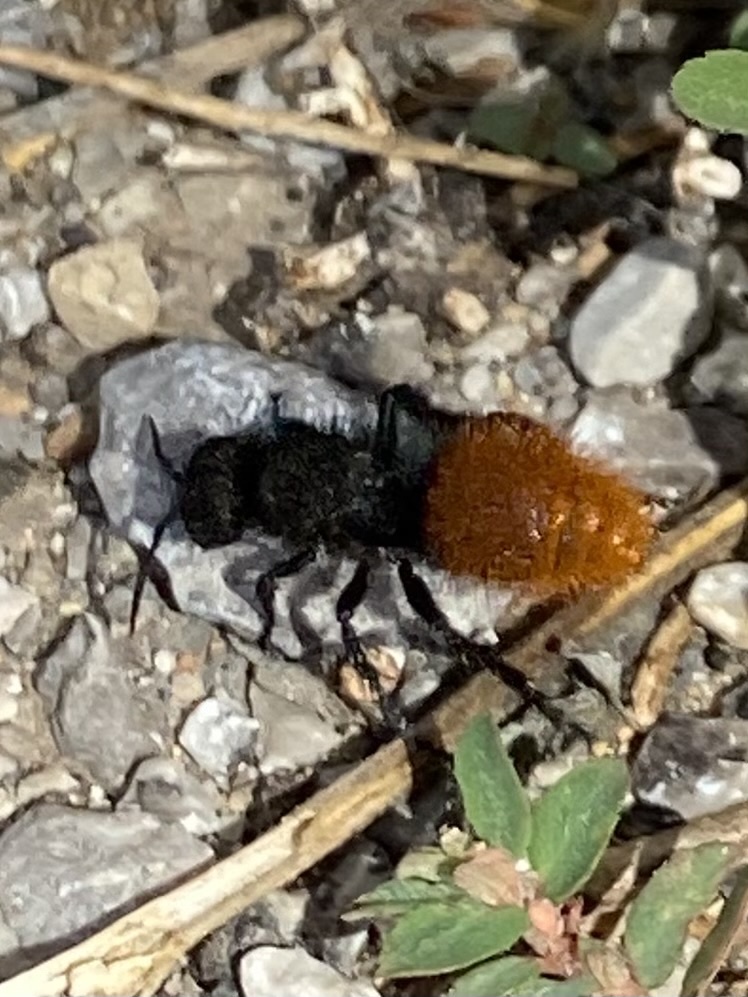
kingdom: Animalia
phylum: Arthropoda
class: Insecta
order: Hymenoptera
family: Mutillidae
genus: Dasymutilla
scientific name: Dasymutilla
